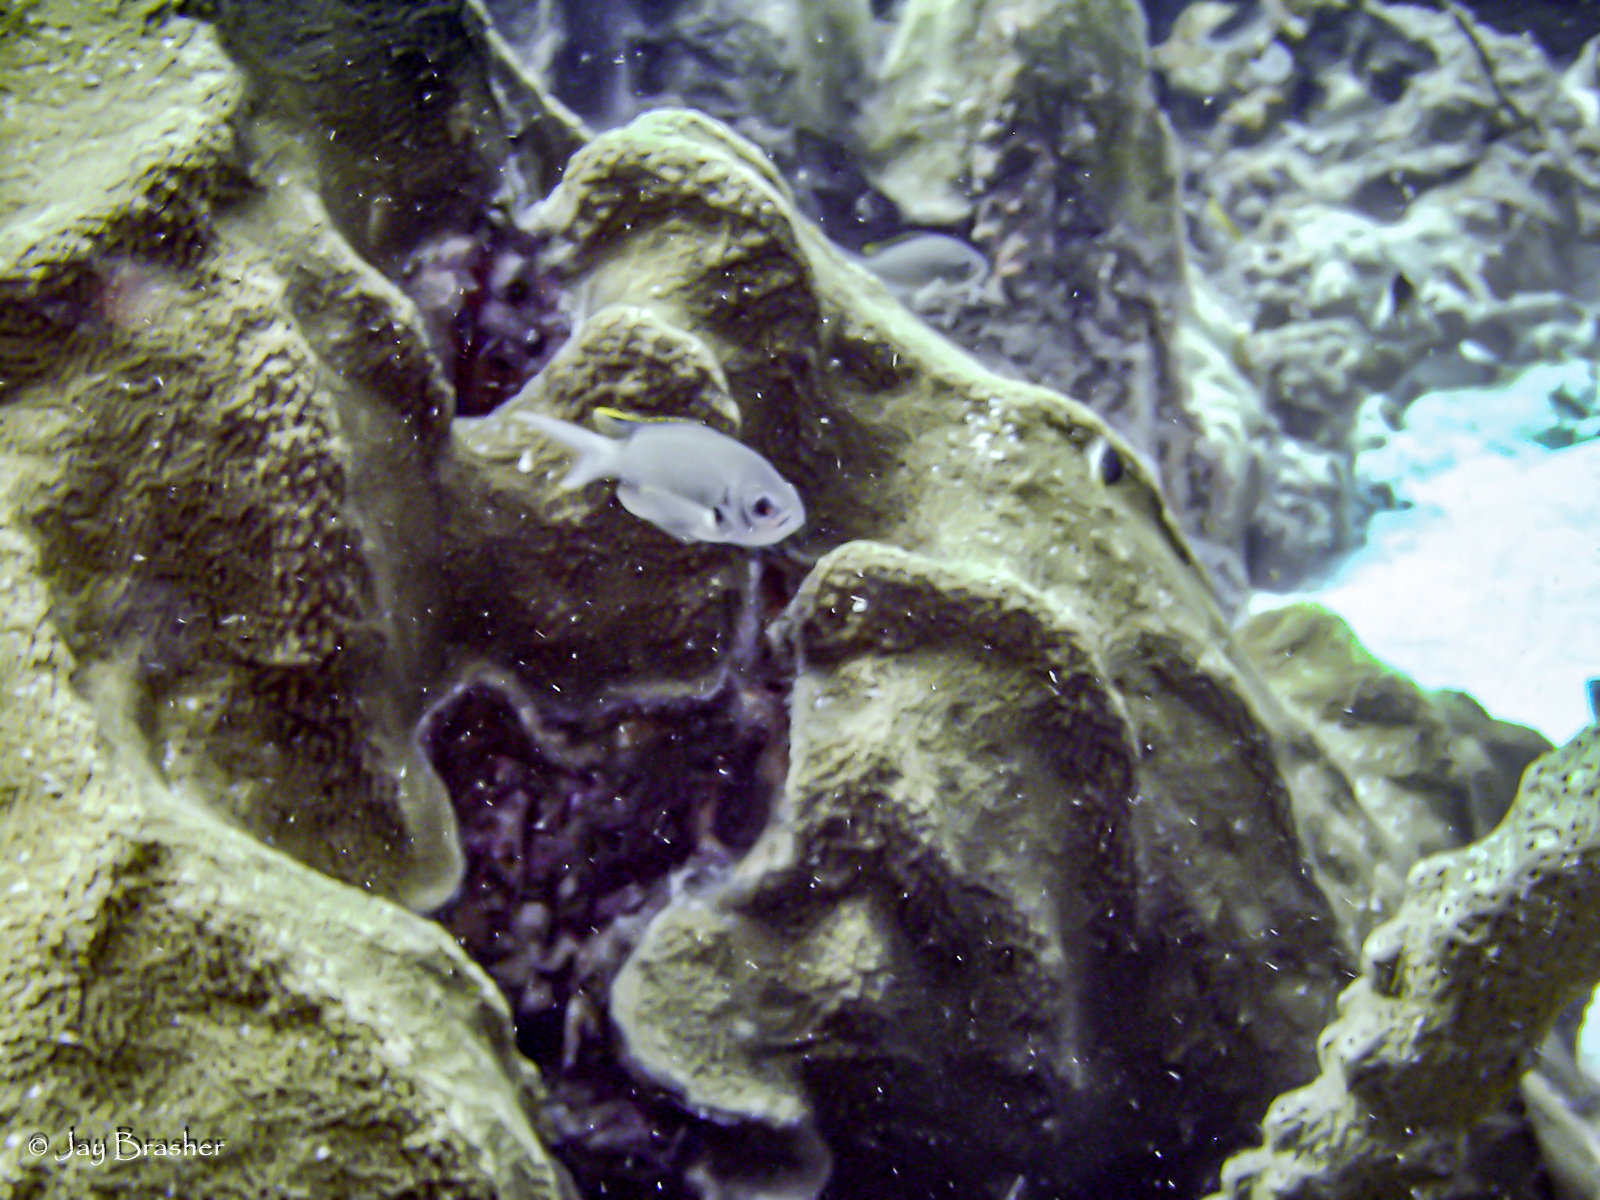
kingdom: Animalia
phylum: Cnidaria
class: Anthozoa
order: Scleractinia
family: Merulinidae
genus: Orbicella
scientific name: Orbicella faveolata
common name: Mountainous star coral
